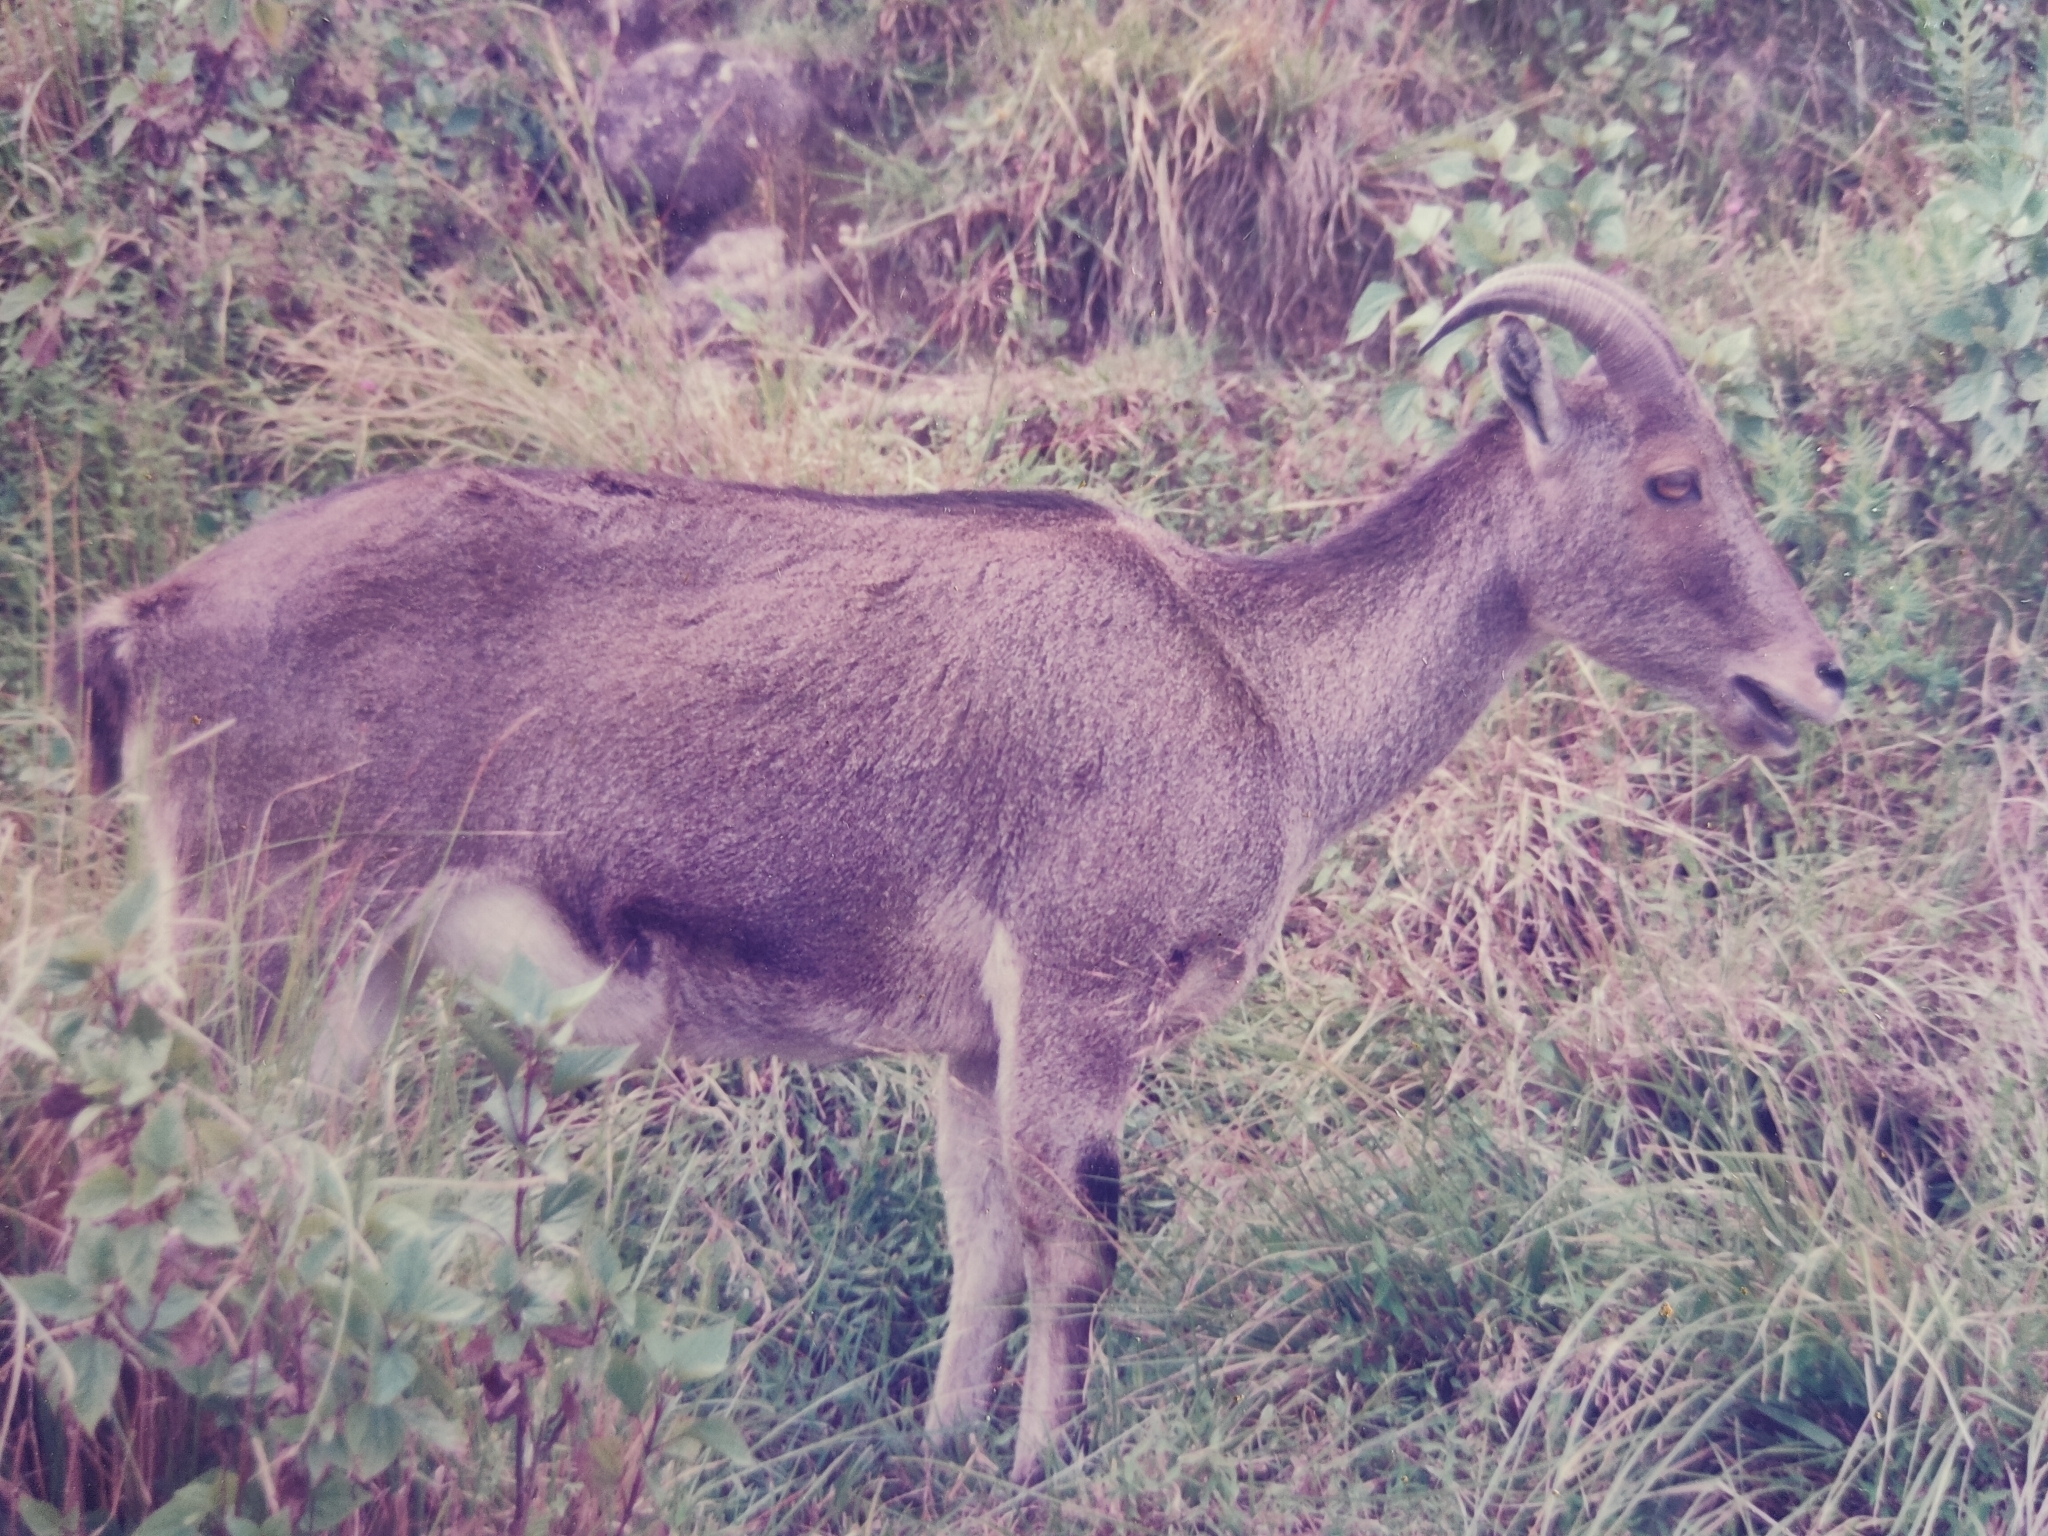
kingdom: Animalia
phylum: Chordata
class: Mammalia
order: Artiodactyla
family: Bovidae
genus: Hemitragus
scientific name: Hemitragus hylocrius
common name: Nilgiri tahr
